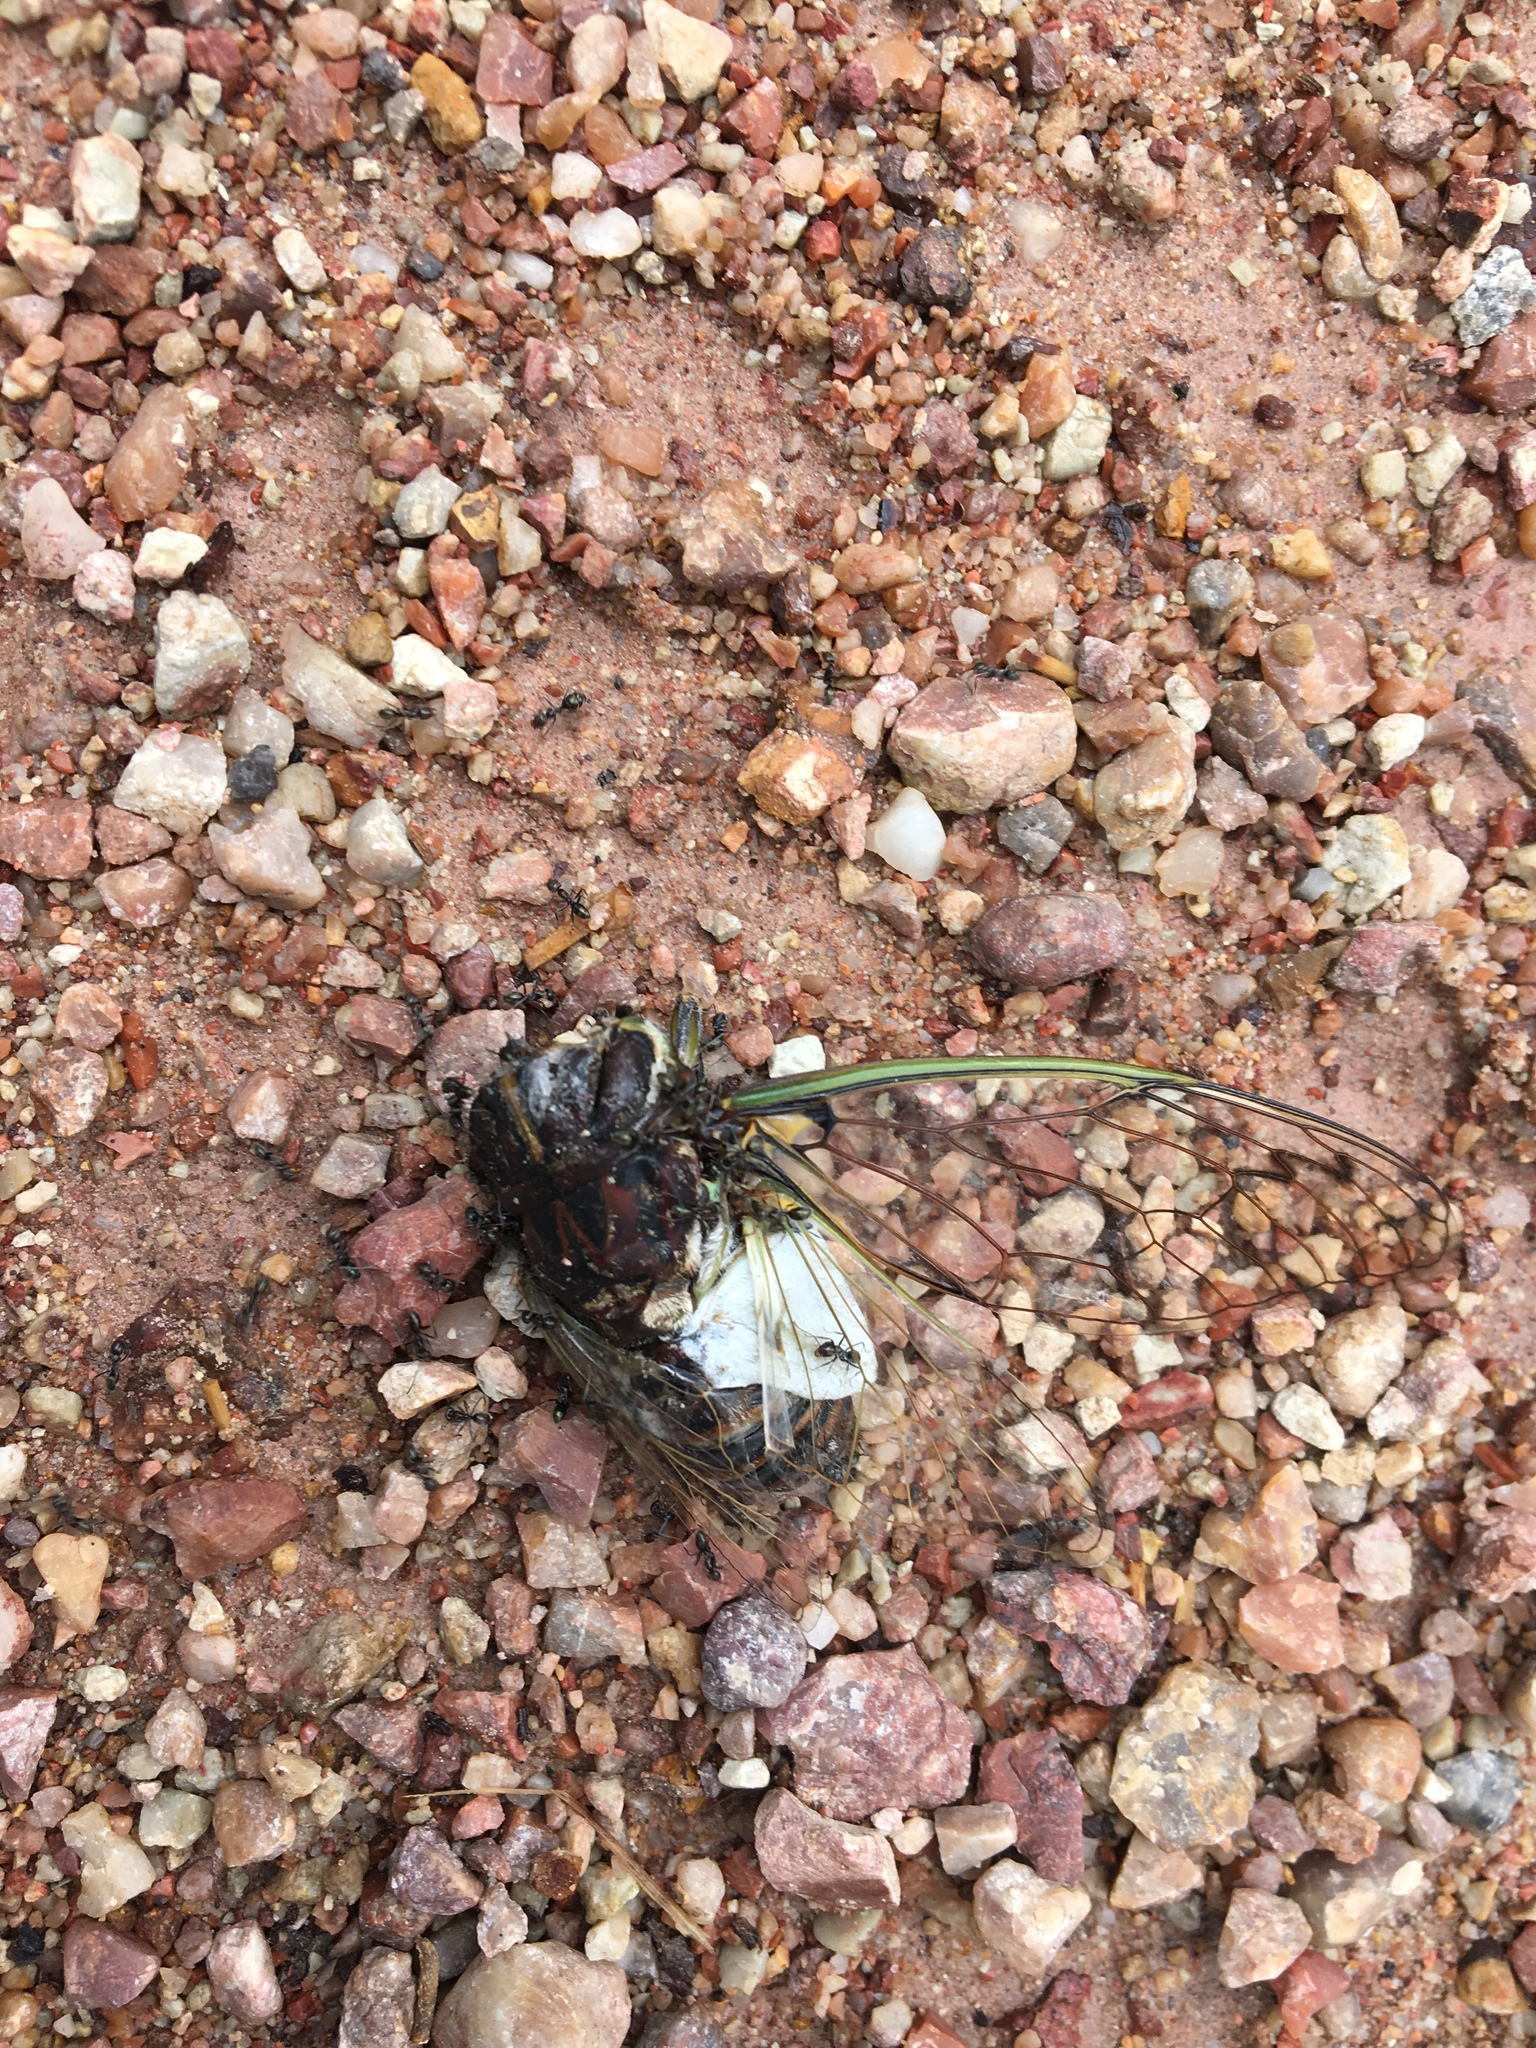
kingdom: Animalia
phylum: Arthropoda
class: Insecta
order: Hemiptera
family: Cicadidae
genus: Arunta
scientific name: Arunta perulata
